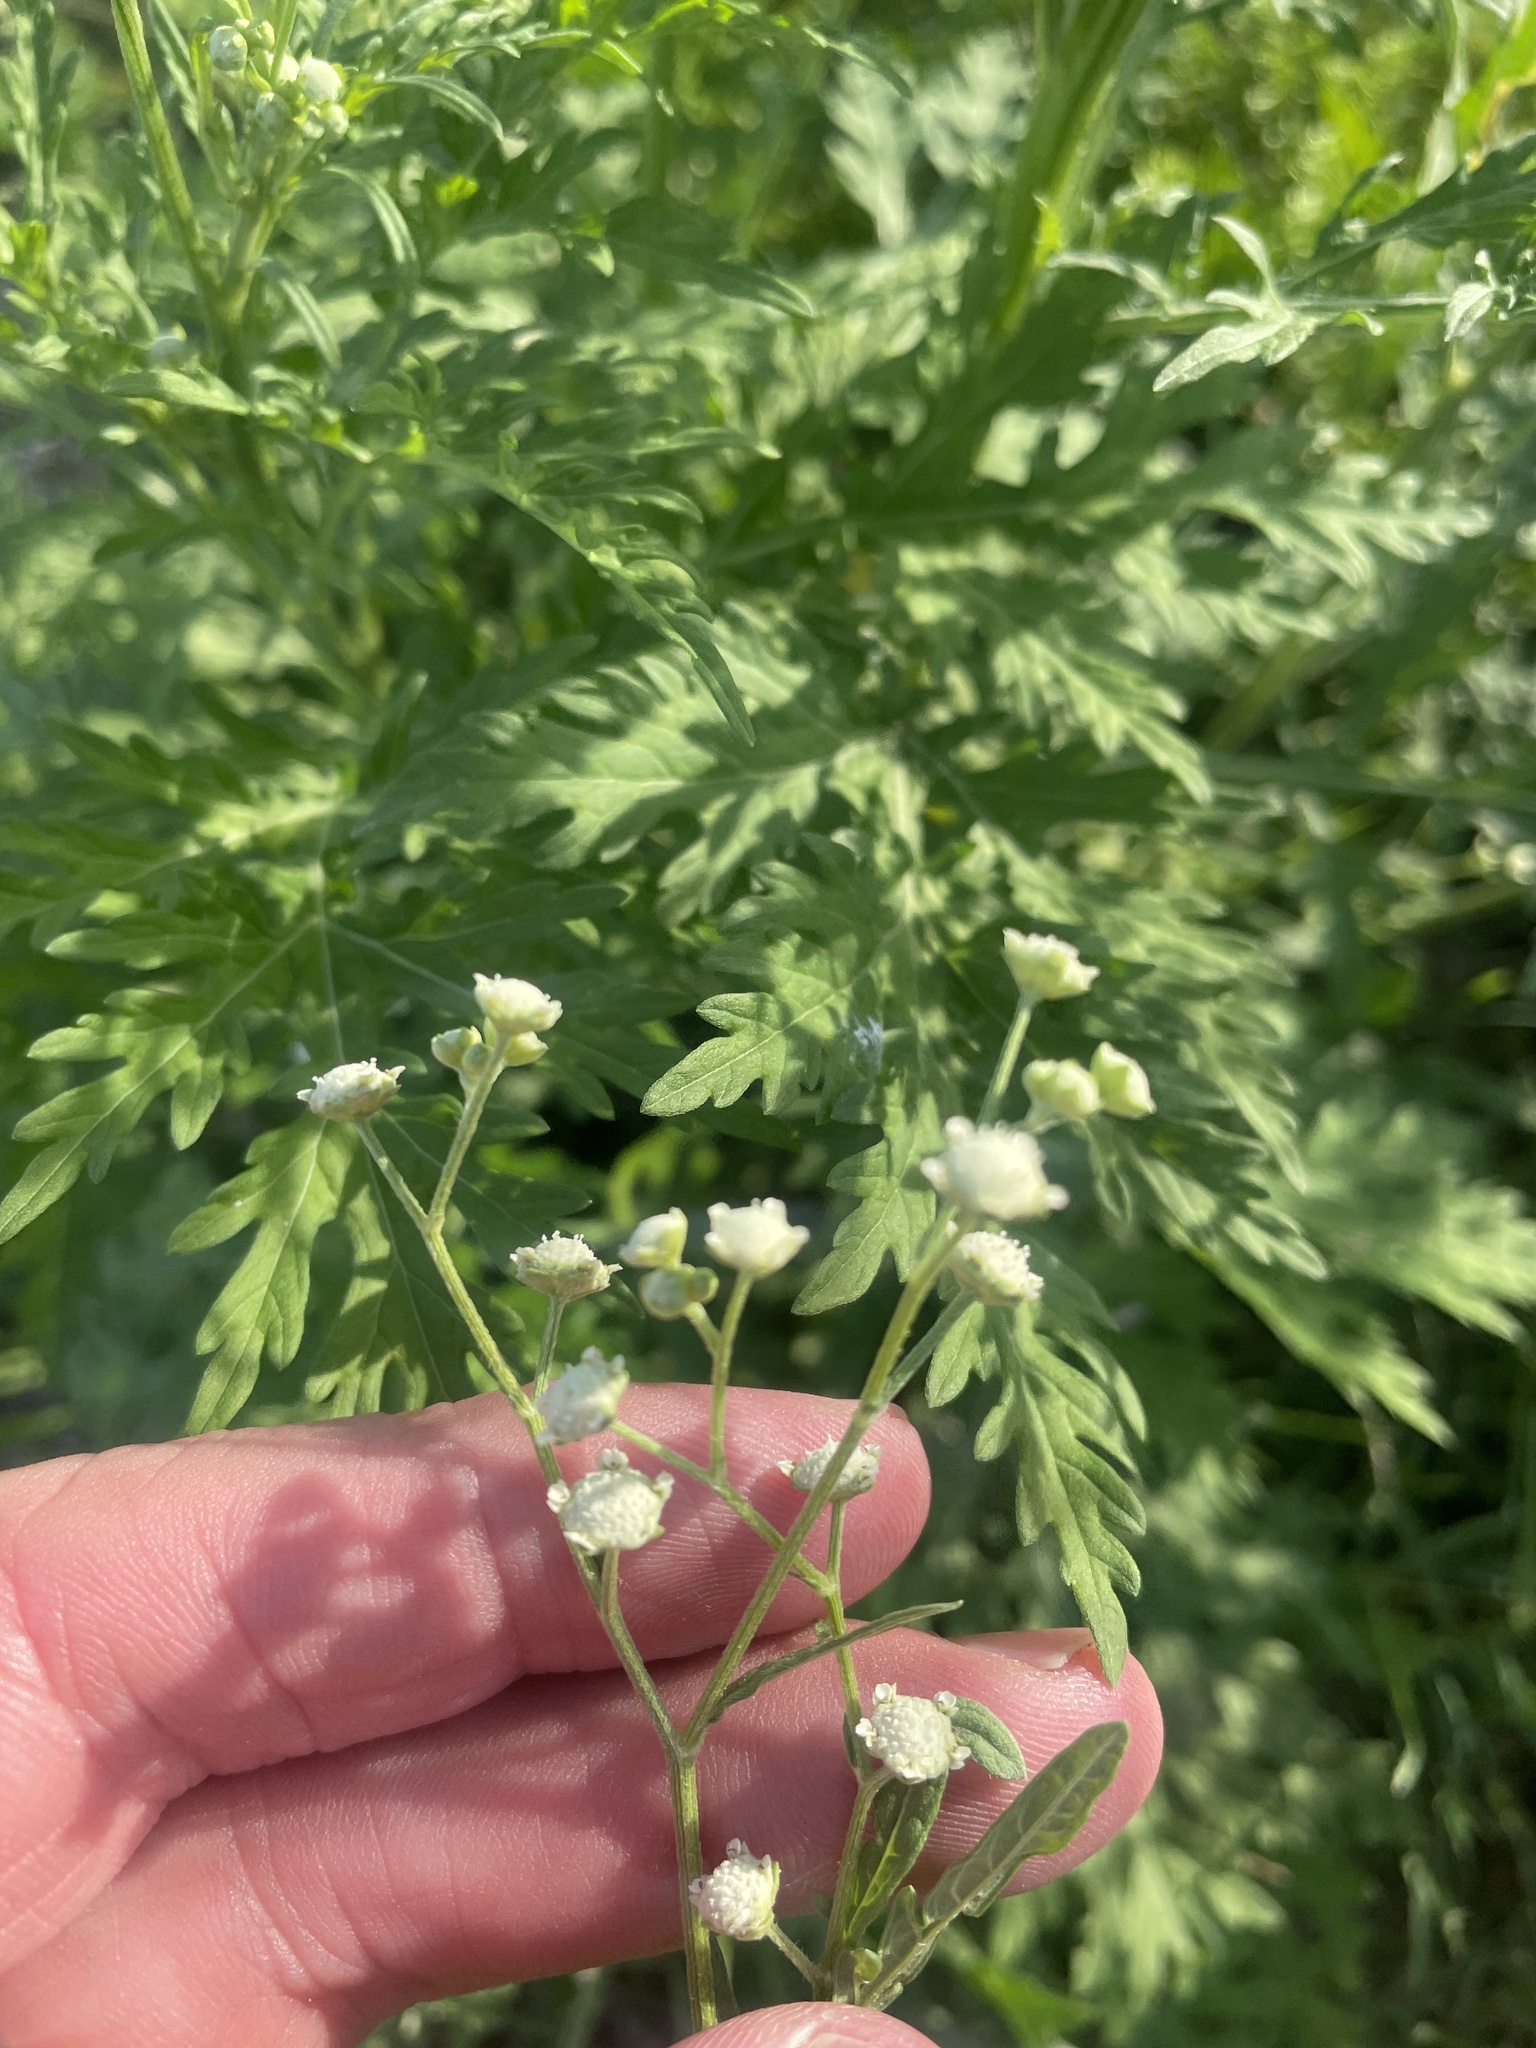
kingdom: Plantae
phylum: Tracheophyta
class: Magnoliopsida
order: Asterales
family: Asteraceae
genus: Parthenium
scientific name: Parthenium hysterophorus
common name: Santa maria feverfew
